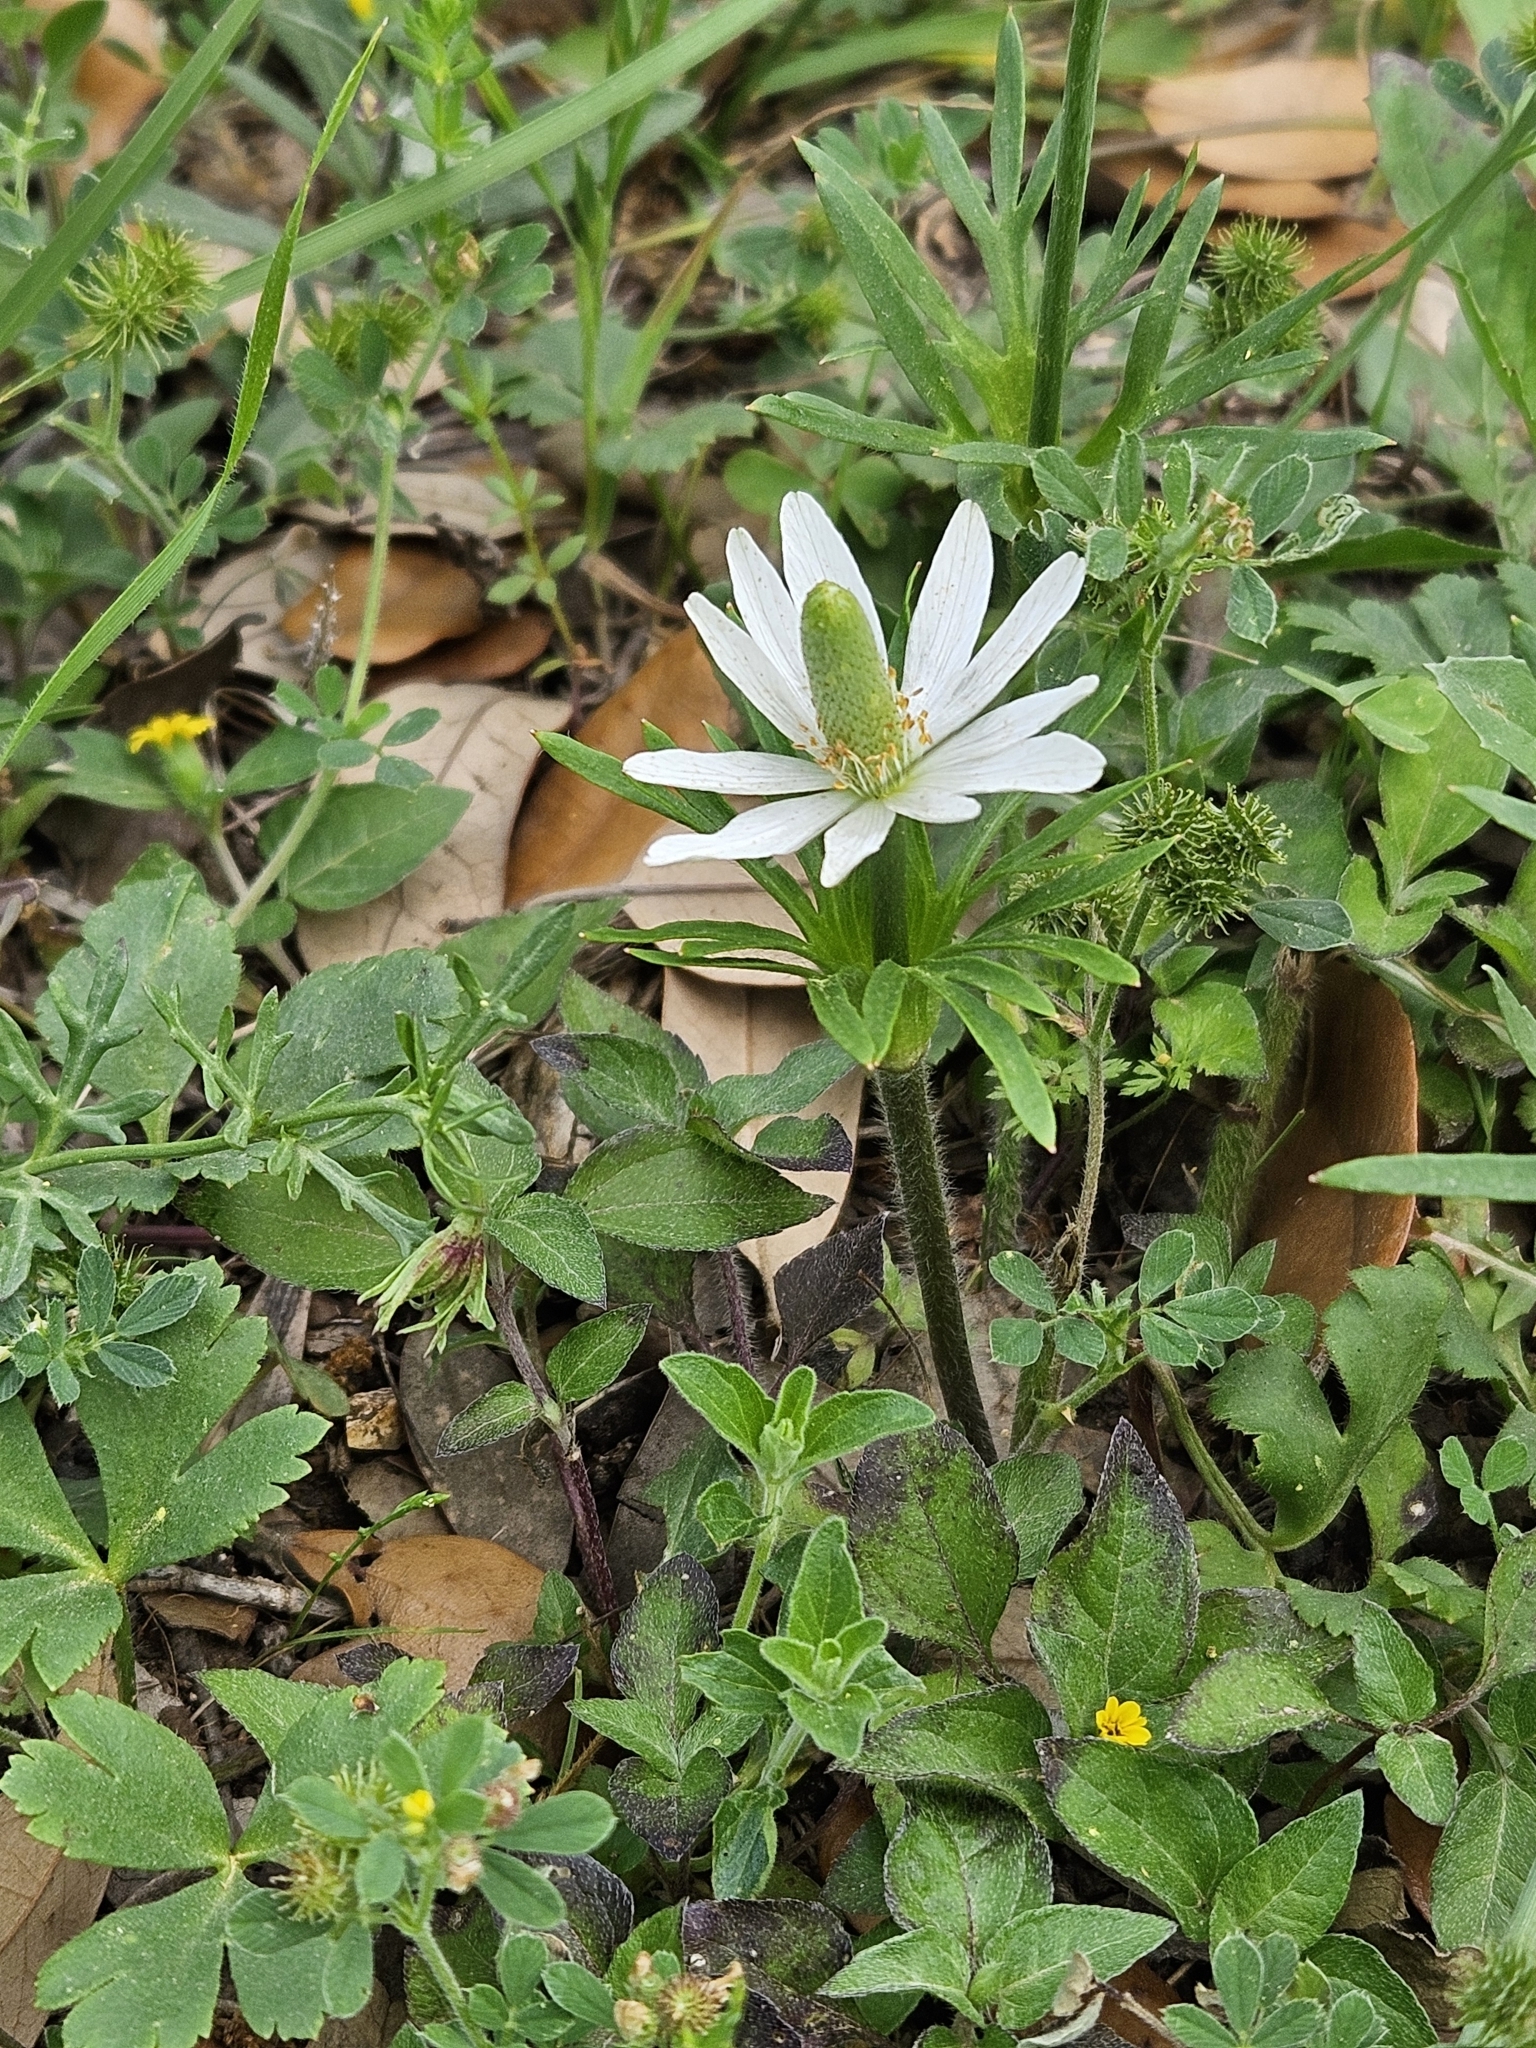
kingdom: Plantae
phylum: Tracheophyta
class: Magnoliopsida
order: Ranunculales
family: Ranunculaceae
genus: Anemone
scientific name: Anemone berlandieri
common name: Ten-petal anemone
